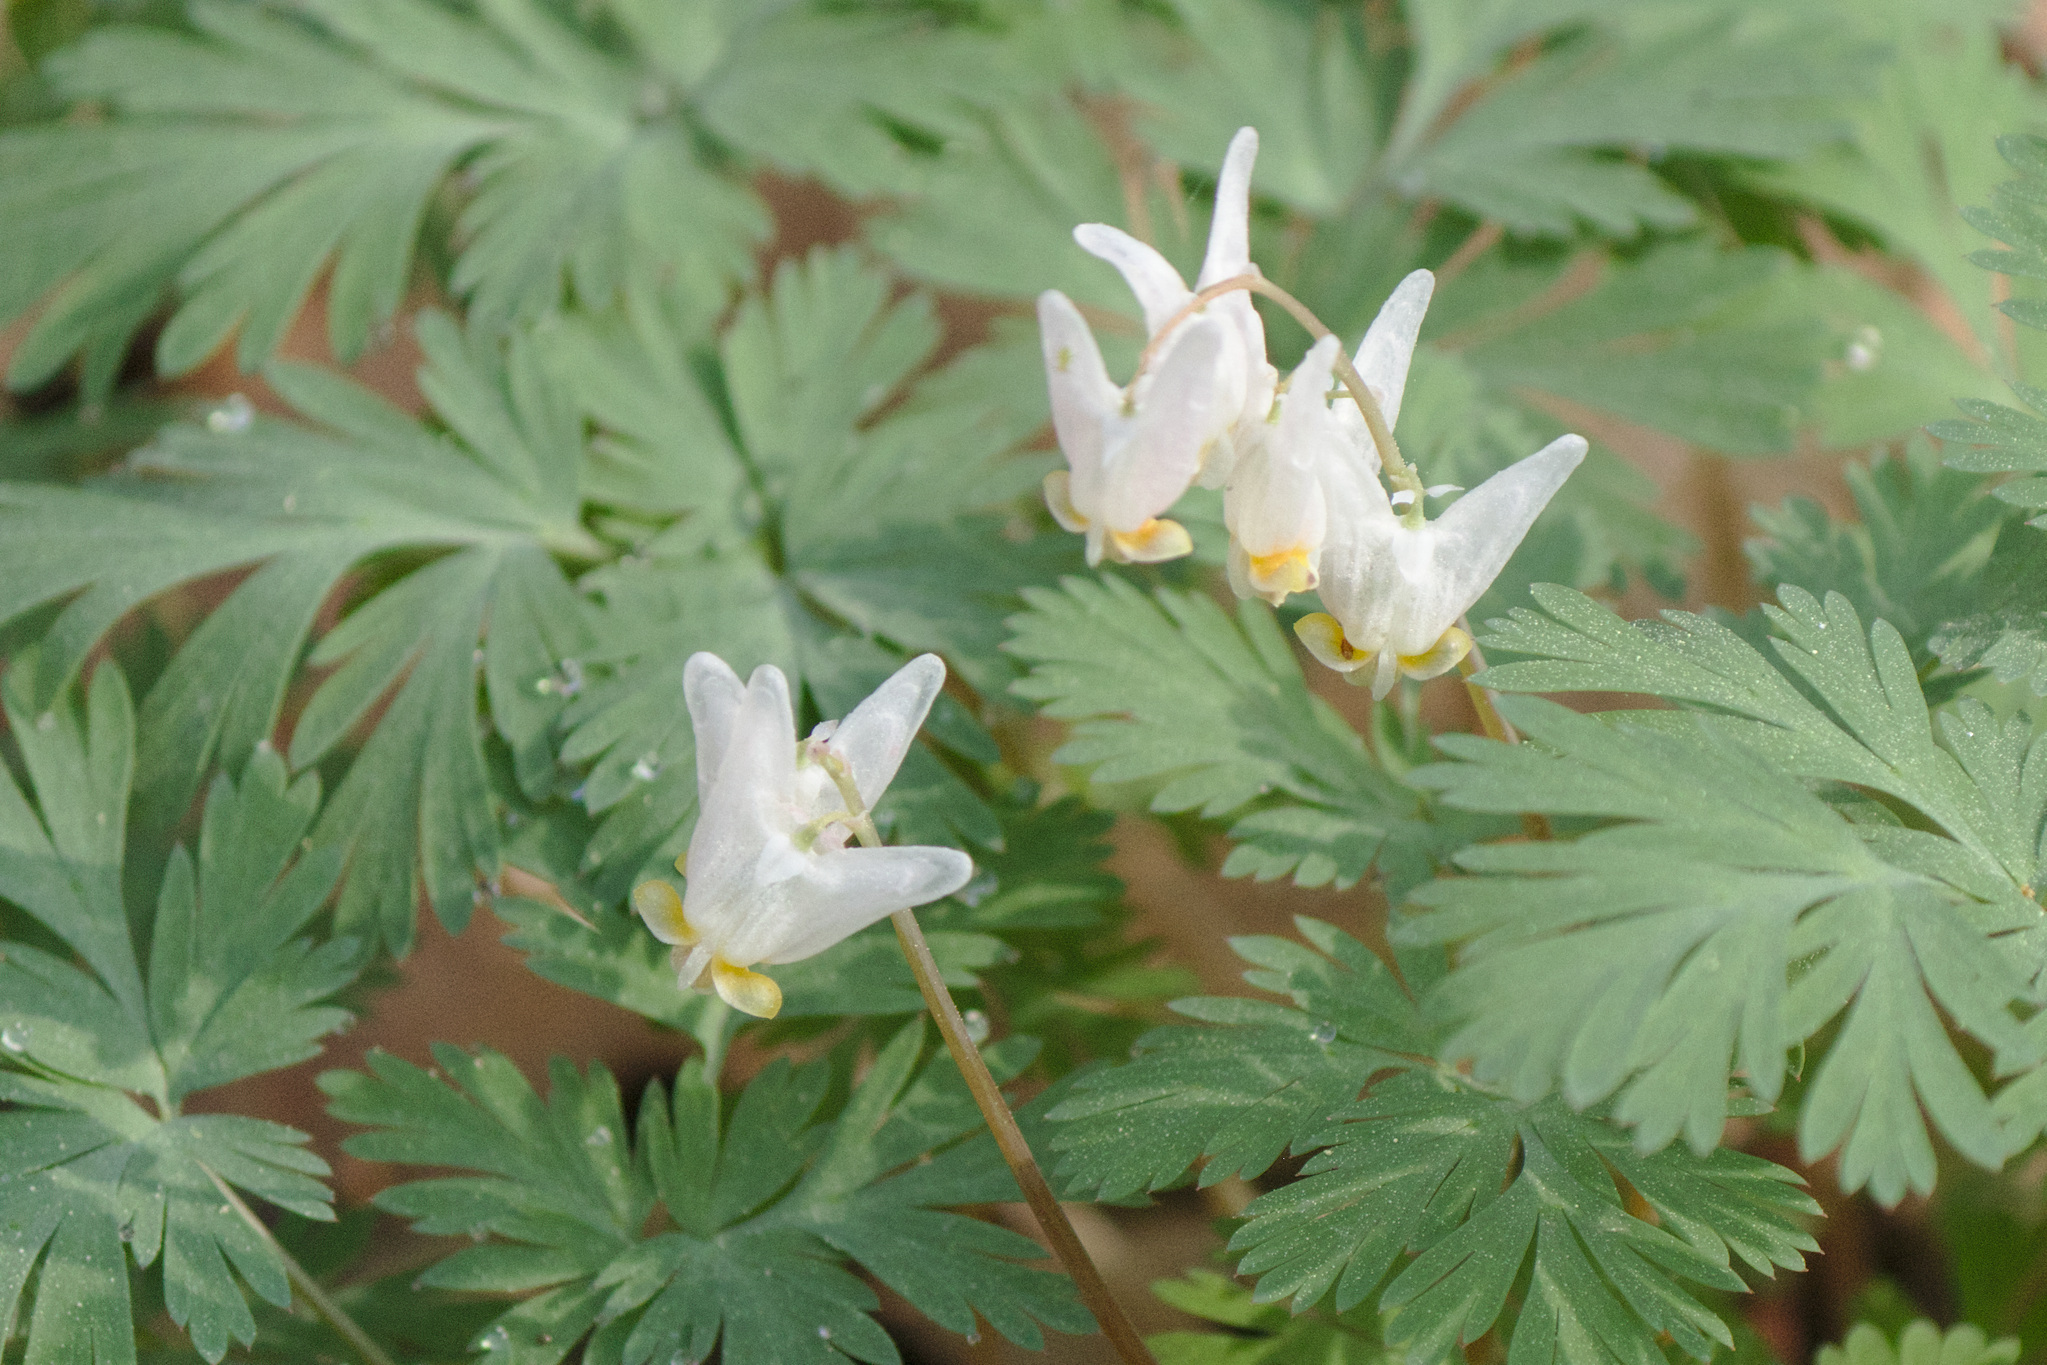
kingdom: Plantae
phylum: Tracheophyta
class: Magnoliopsida
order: Ranunculales
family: Papaveraceae
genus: Dicentra
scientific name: Dicentra cucullaria
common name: Dutchman's breeches
